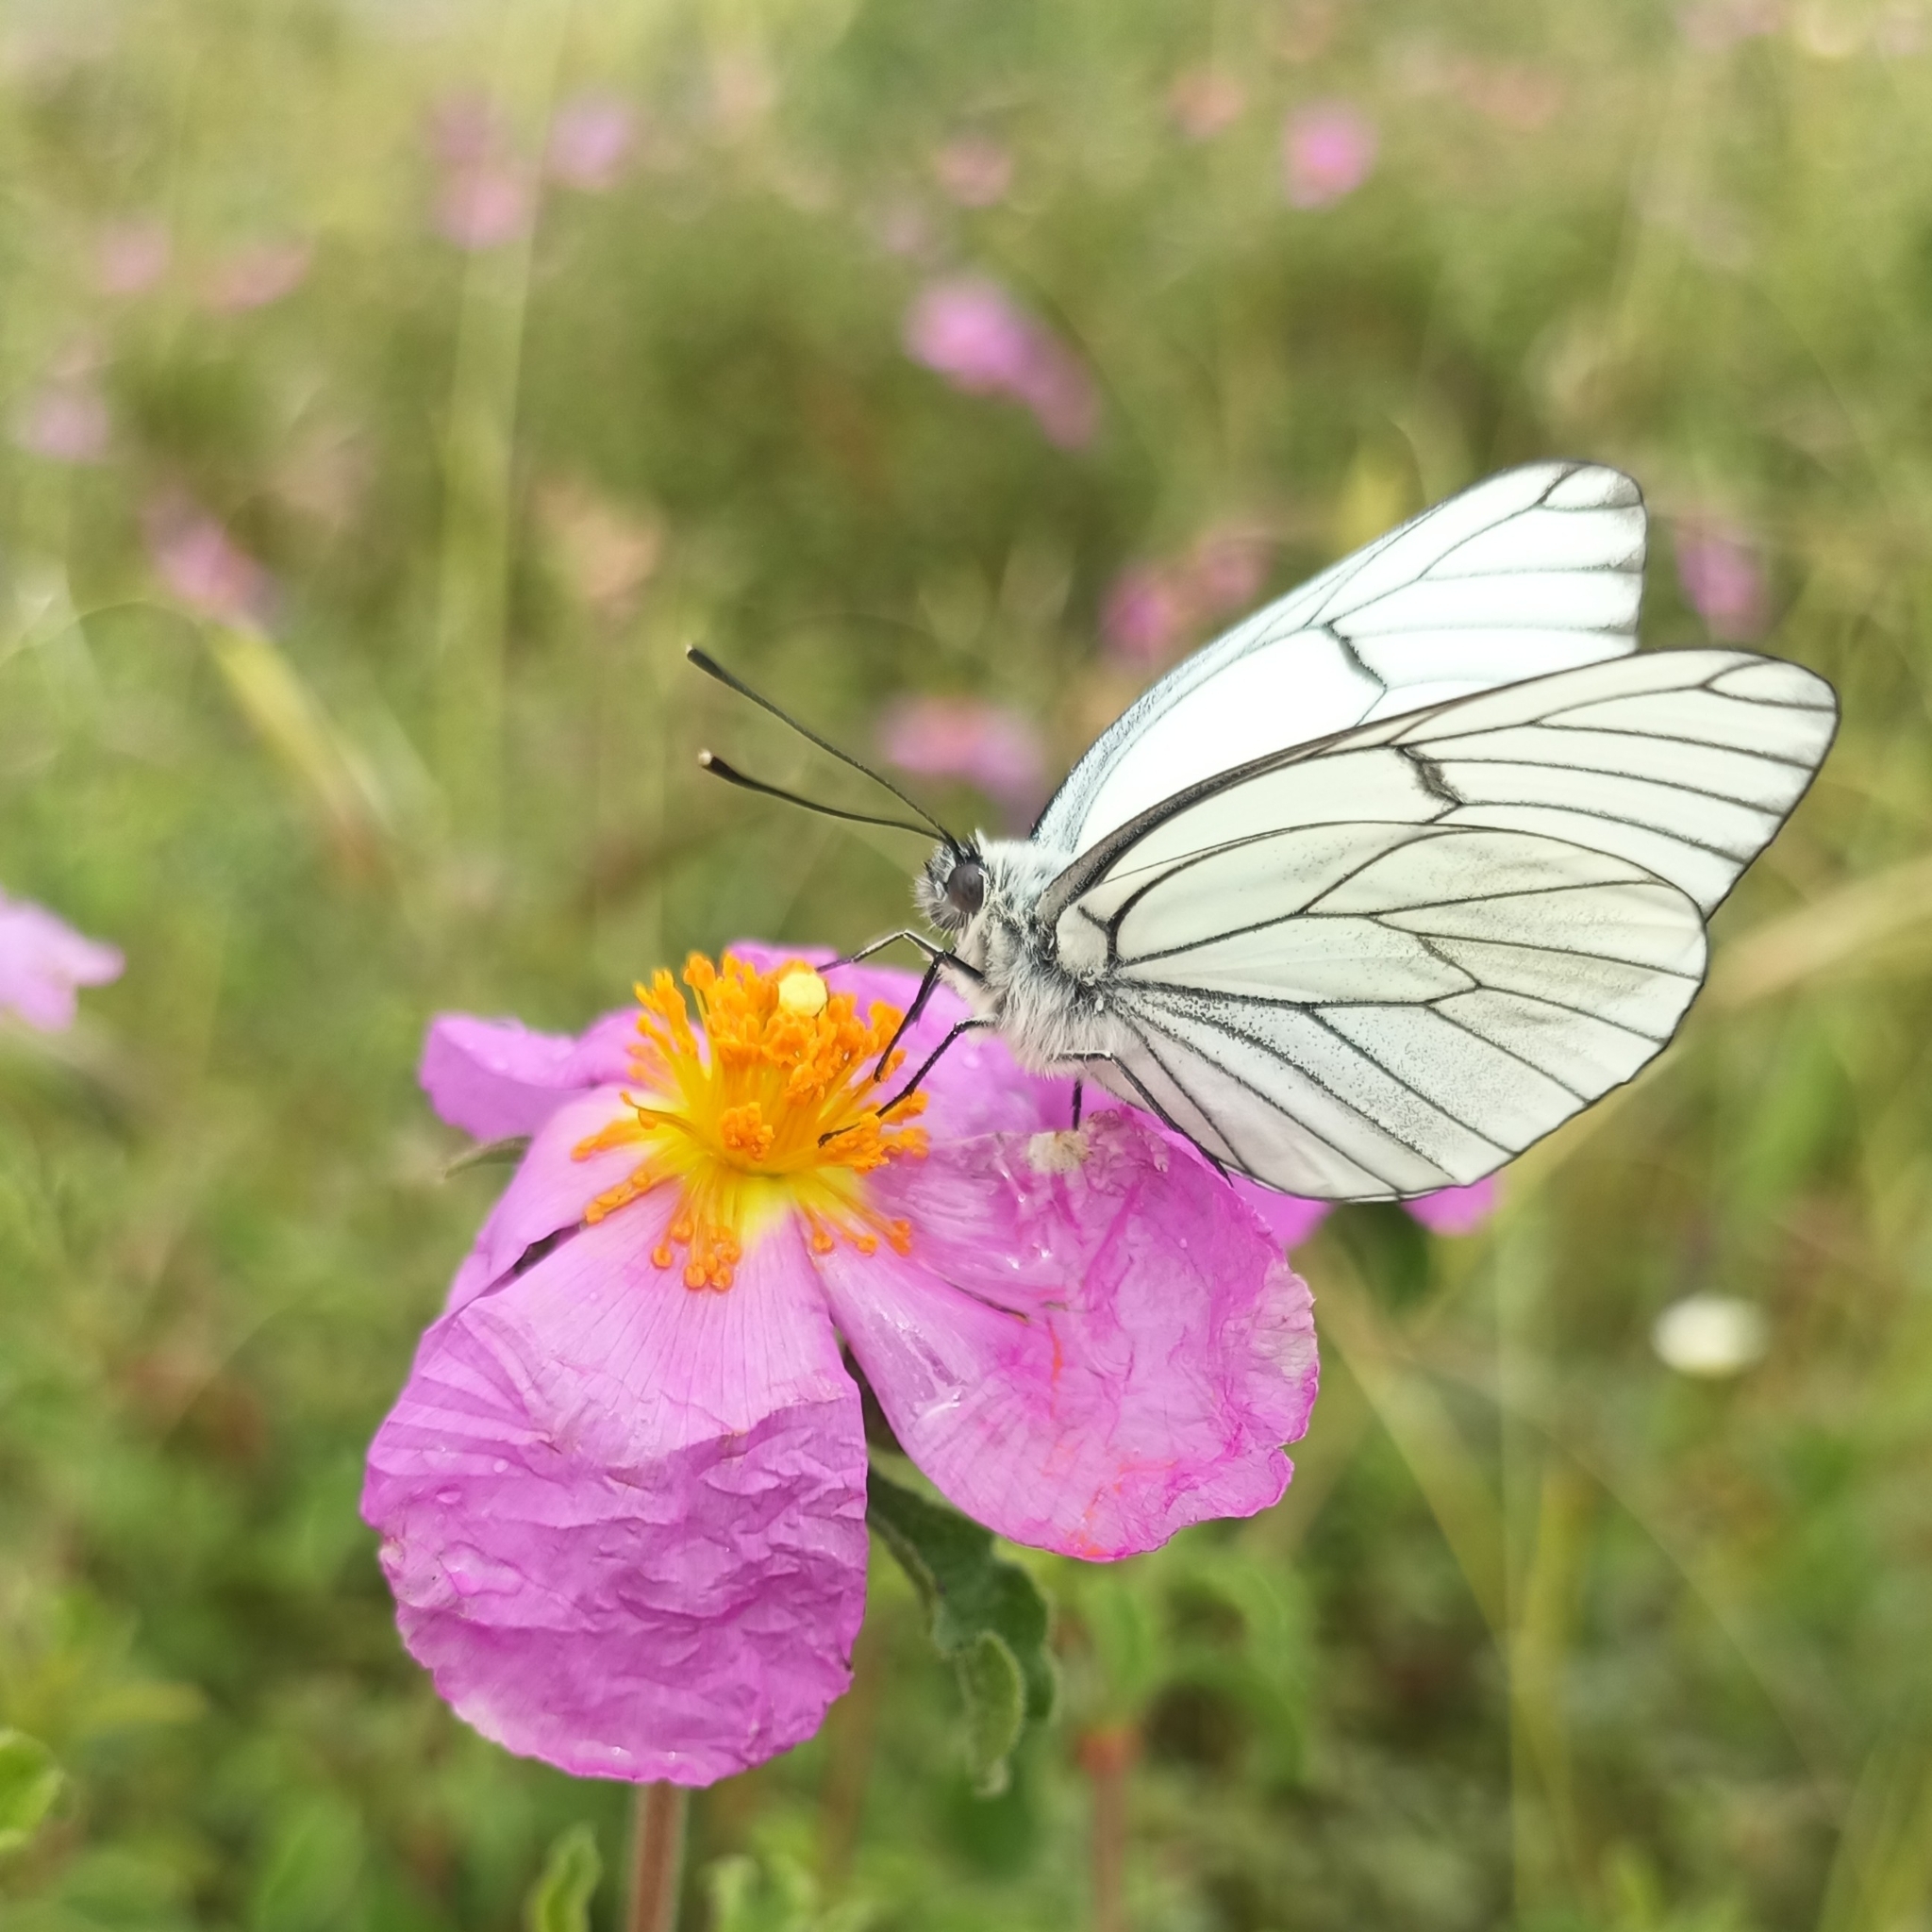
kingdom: Animalia
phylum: Arthropoda
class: Insecta
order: Lepidoptera
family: Pieridae
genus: Aporia
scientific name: Aporia crataegi
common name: Black-veined white
